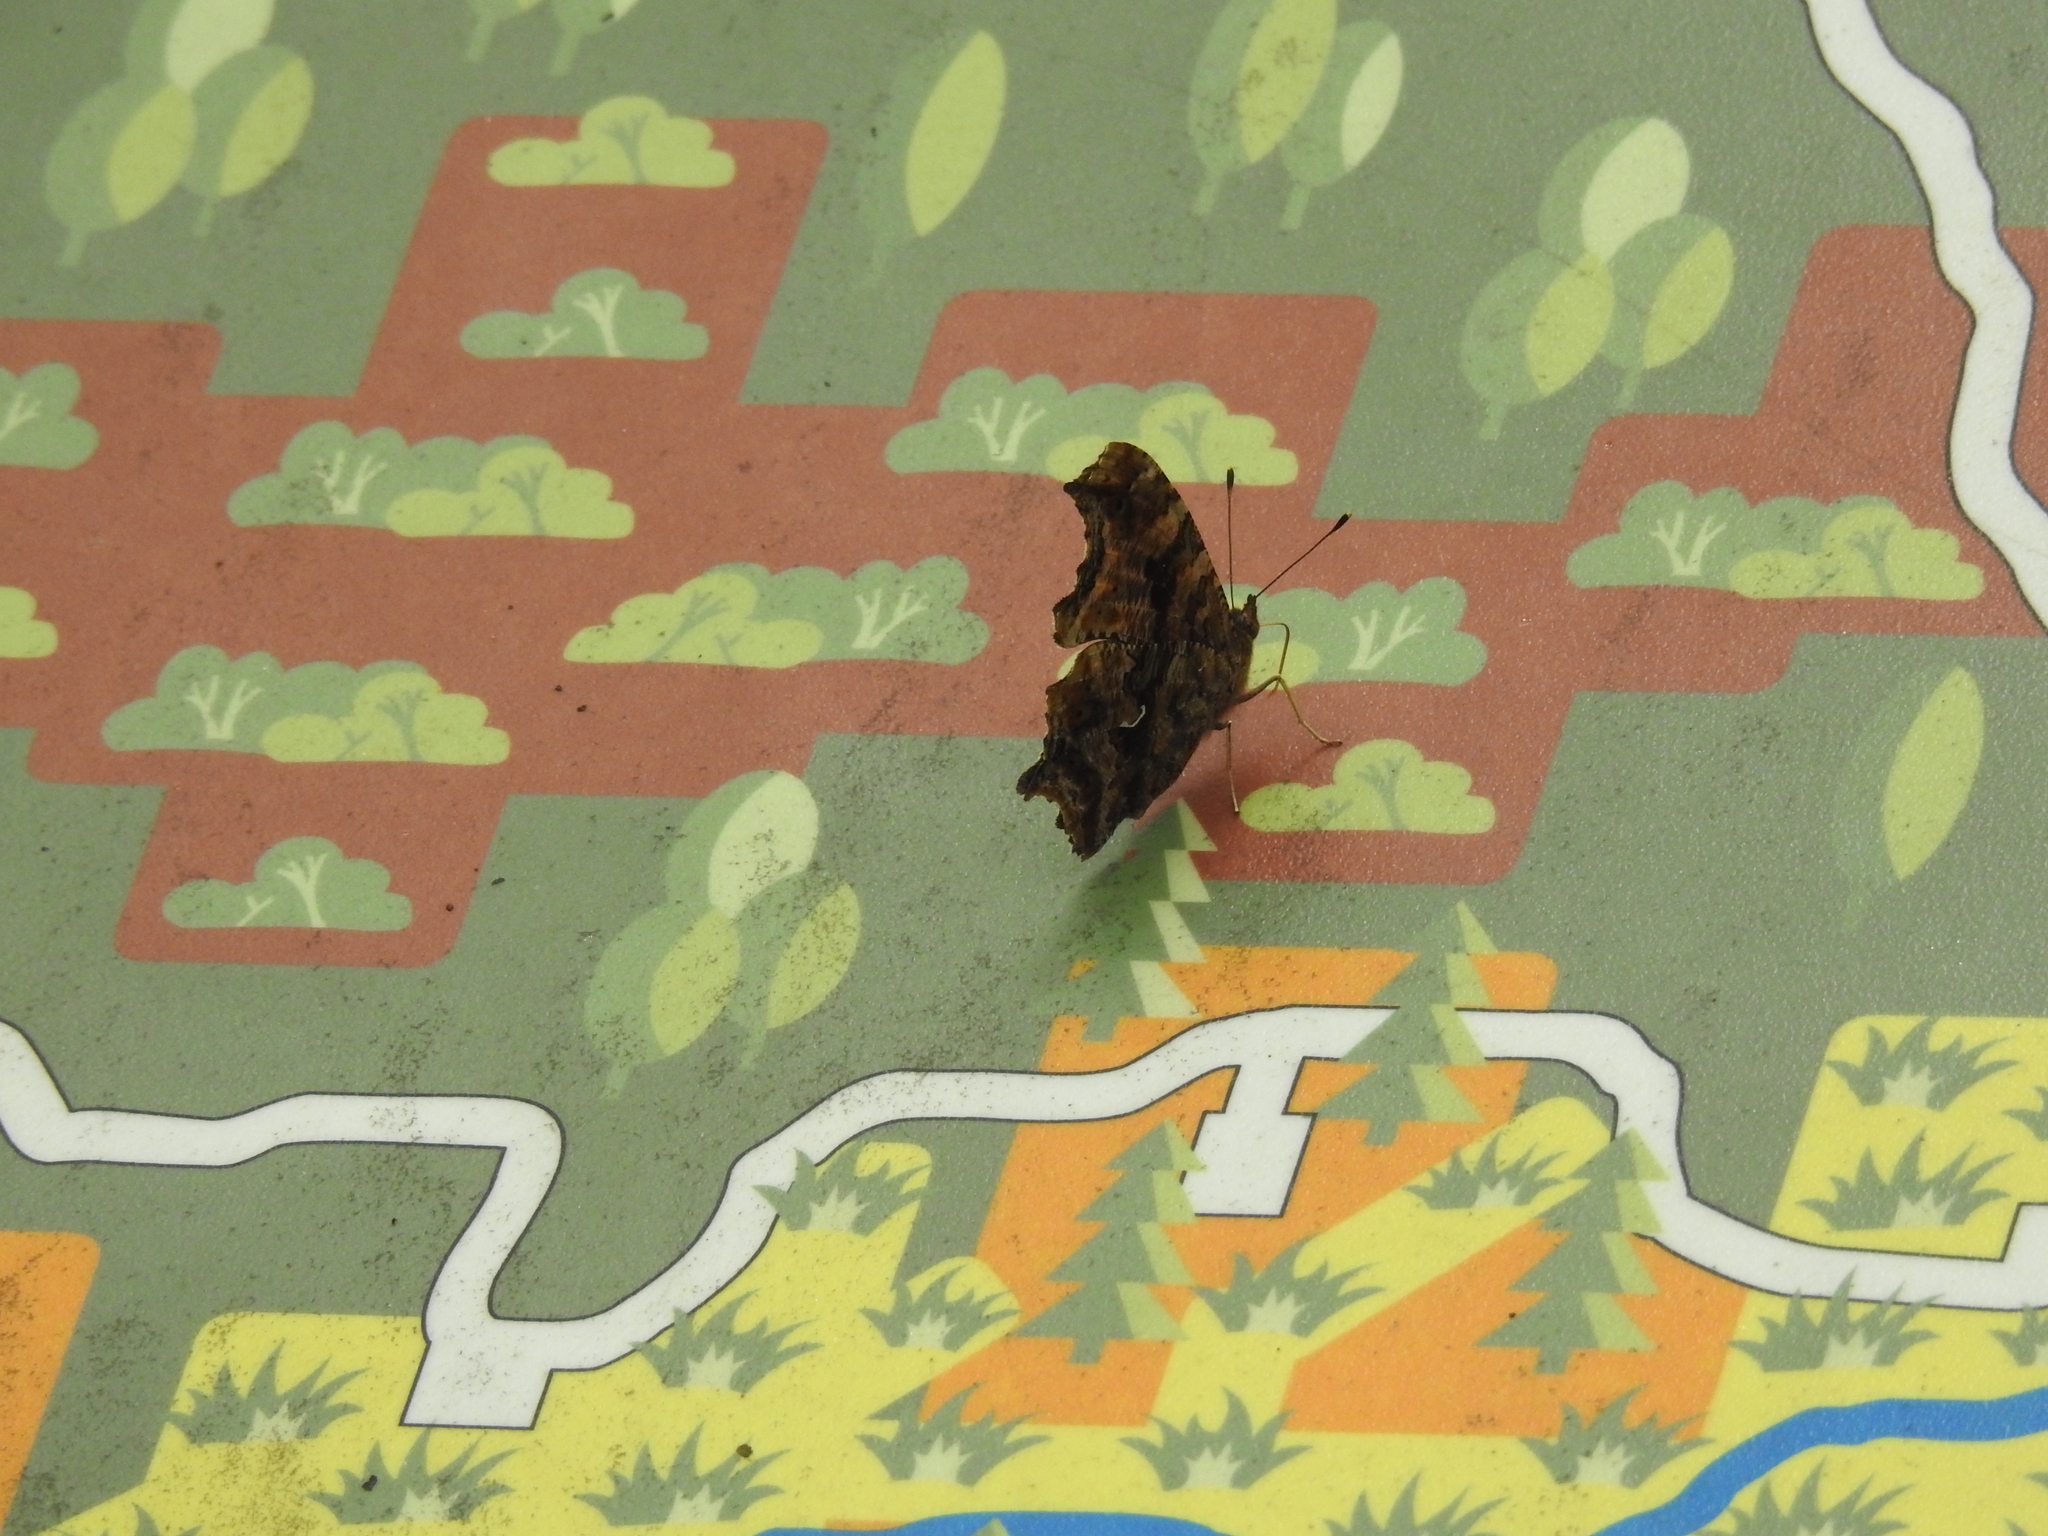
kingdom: Animalia
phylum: Arthropoda
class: Insecta
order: Lepidoptera
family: Nymphalidae
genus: Polygonia
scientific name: Polygonia comma
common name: Eastern comma
